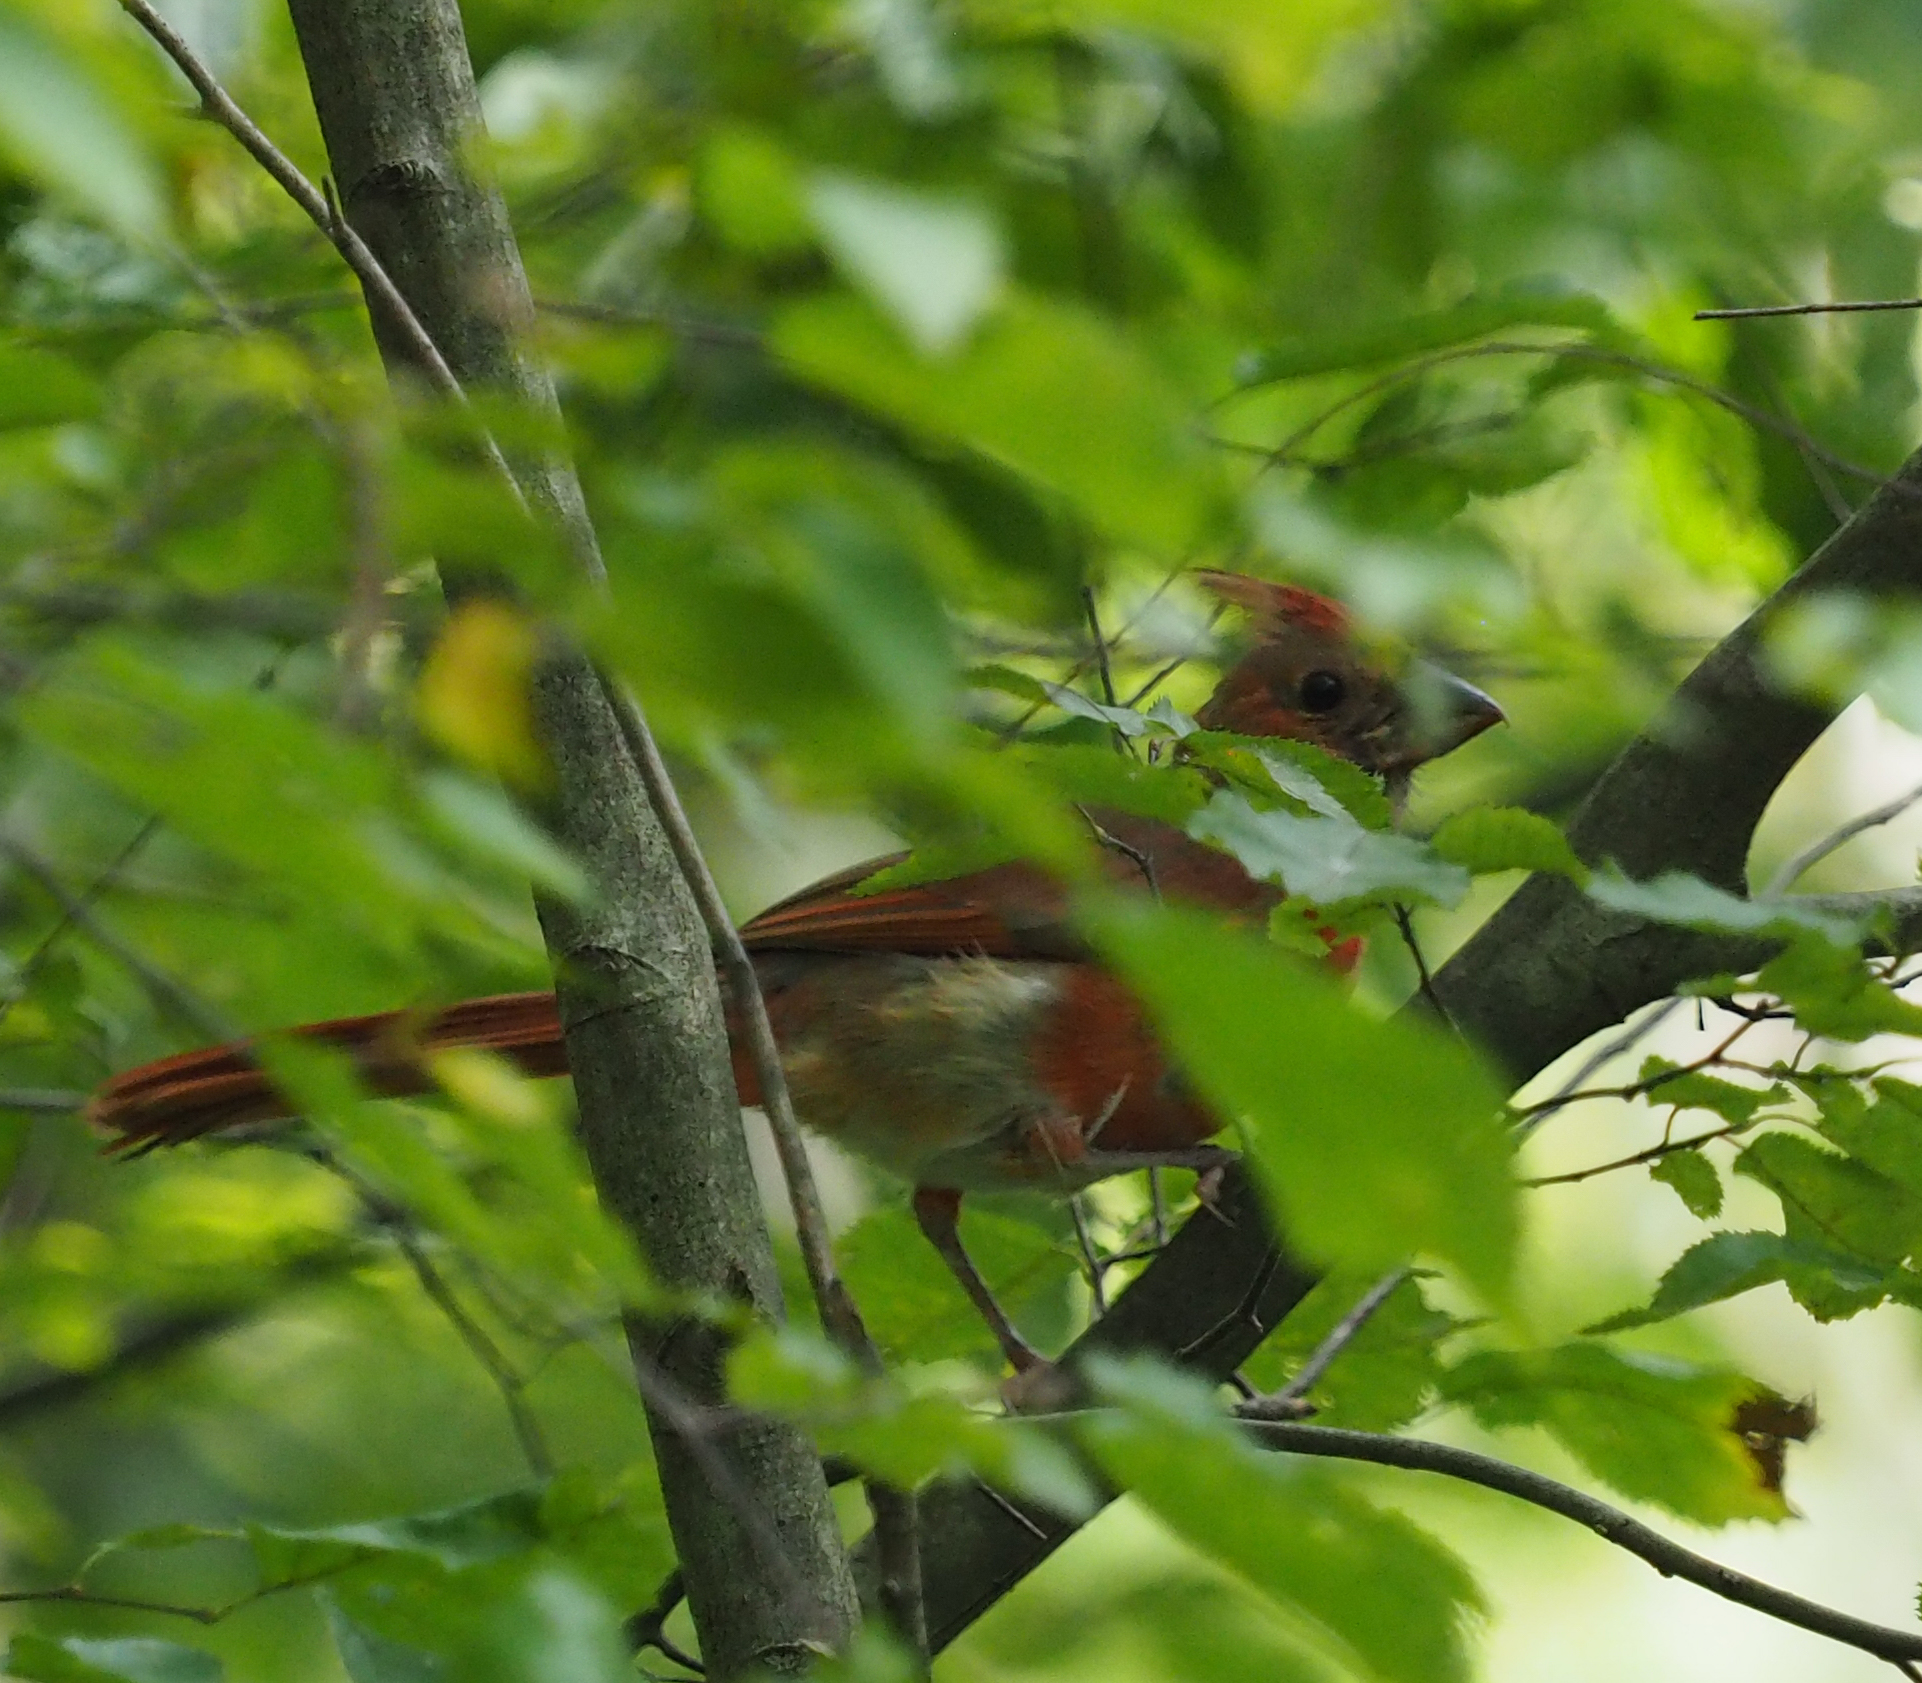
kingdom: Animalia
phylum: Chordata
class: Aves
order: Passeriformes
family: Cardinalidae
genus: Cardinalis
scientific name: Cardinalis cardinalis
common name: Northern cardinal
